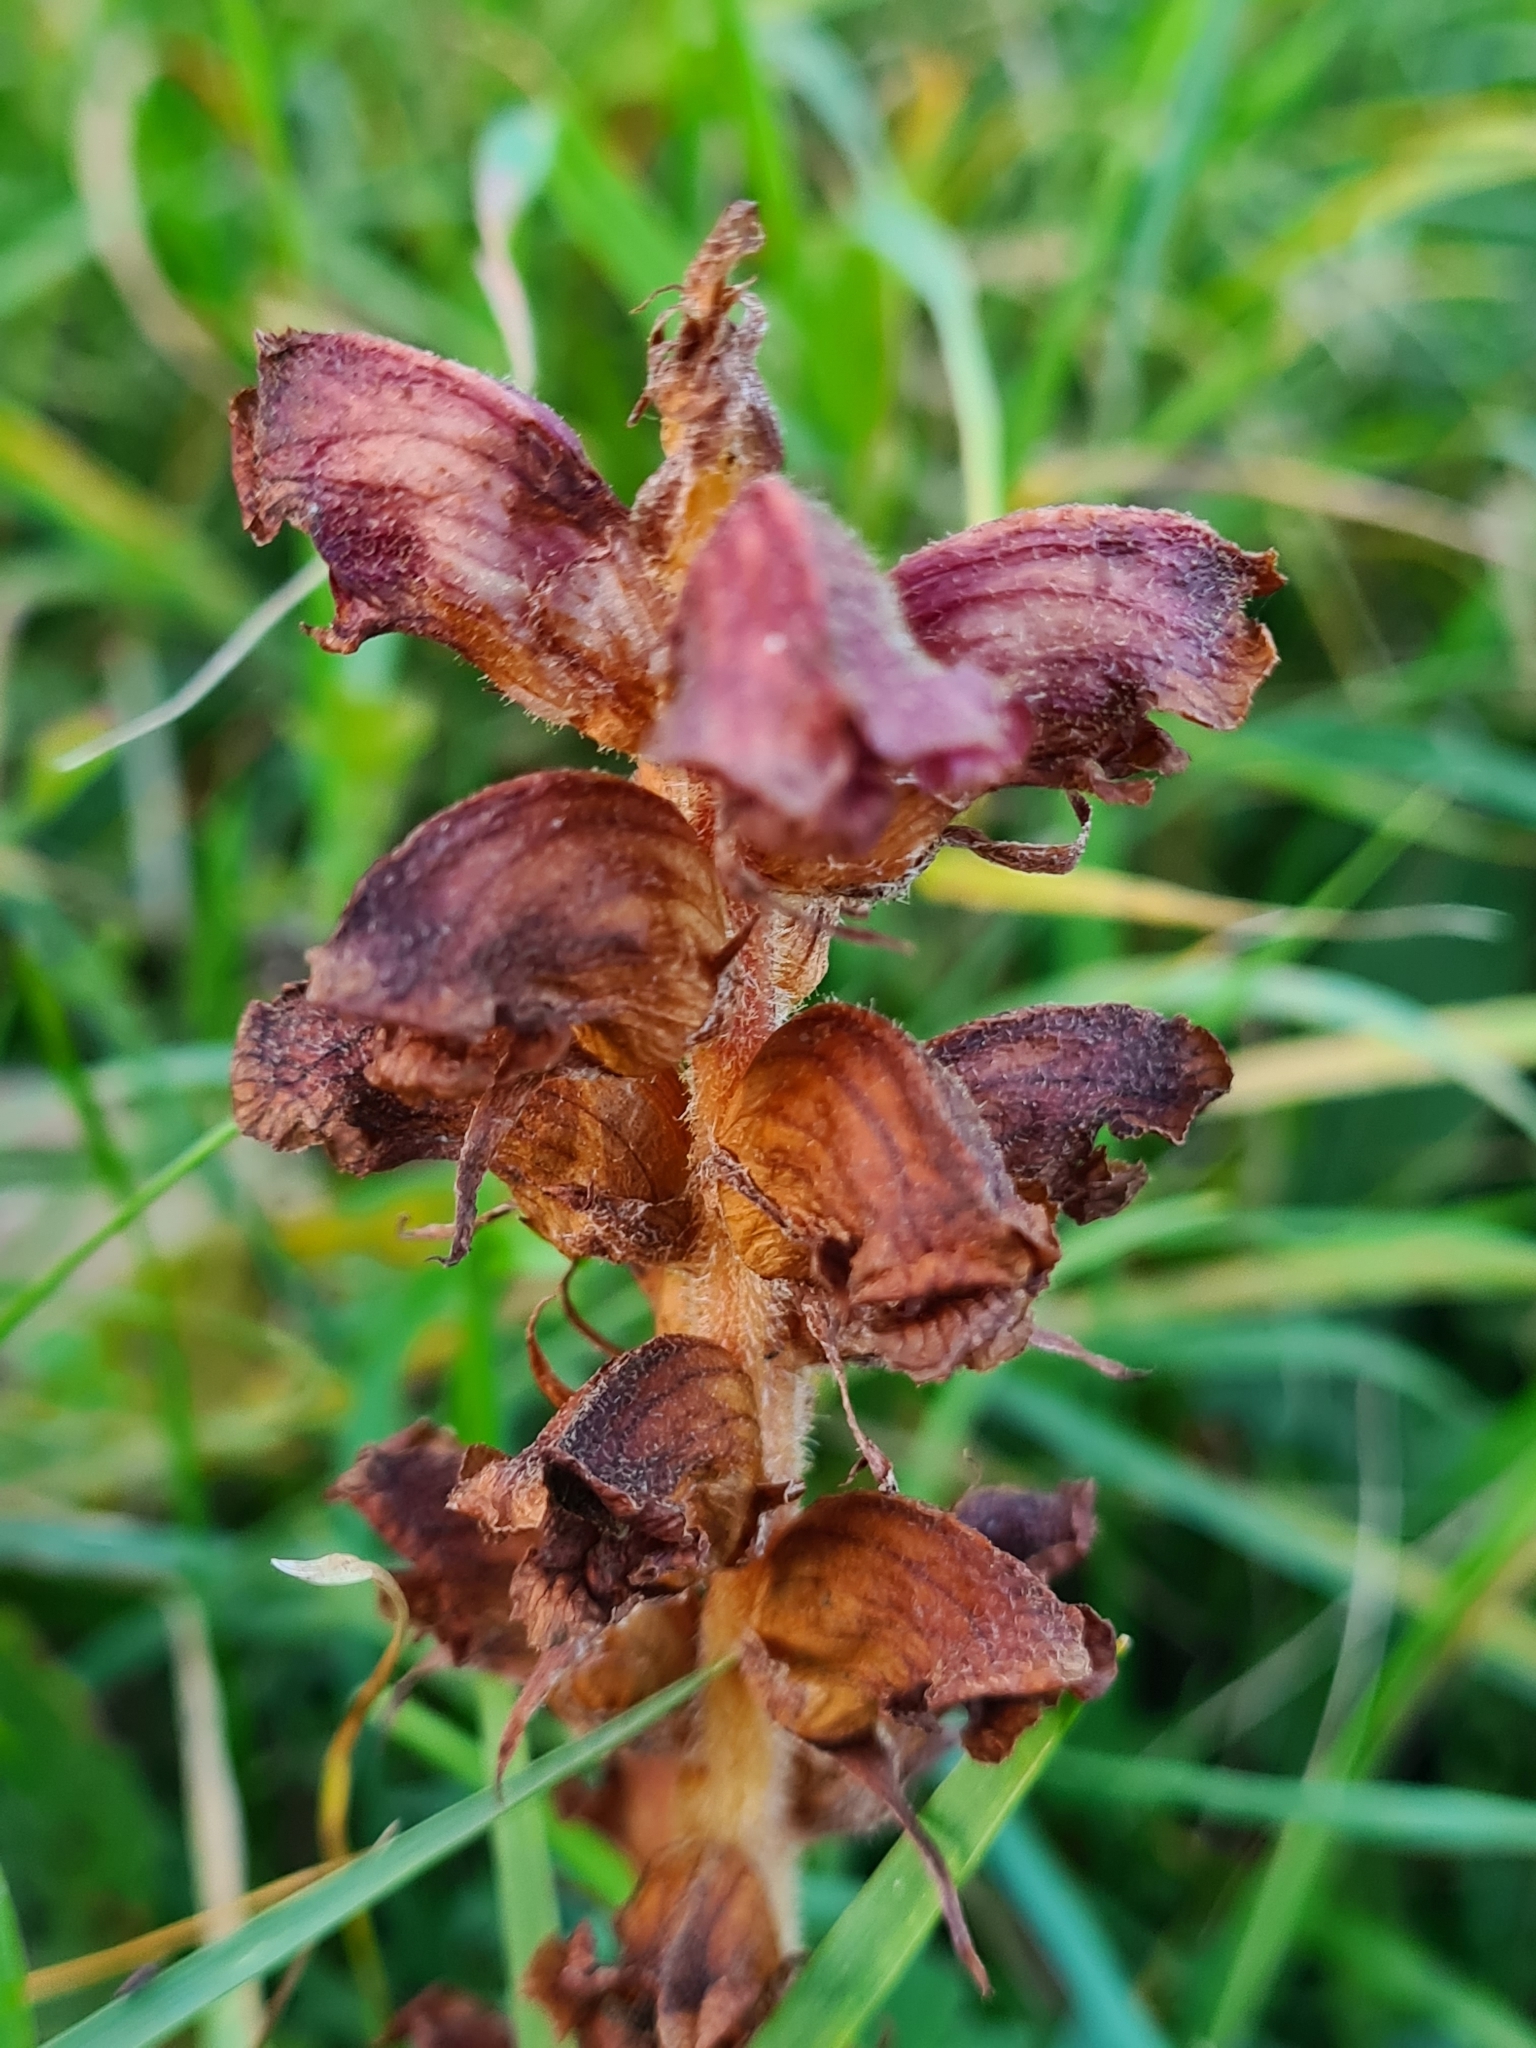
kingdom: Plantae
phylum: Tracheophyta
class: Magnoliopsida
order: Lamiales
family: Orobanchaceae
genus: Orobanche
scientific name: Orobanche gracilis
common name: Slender broomrape
